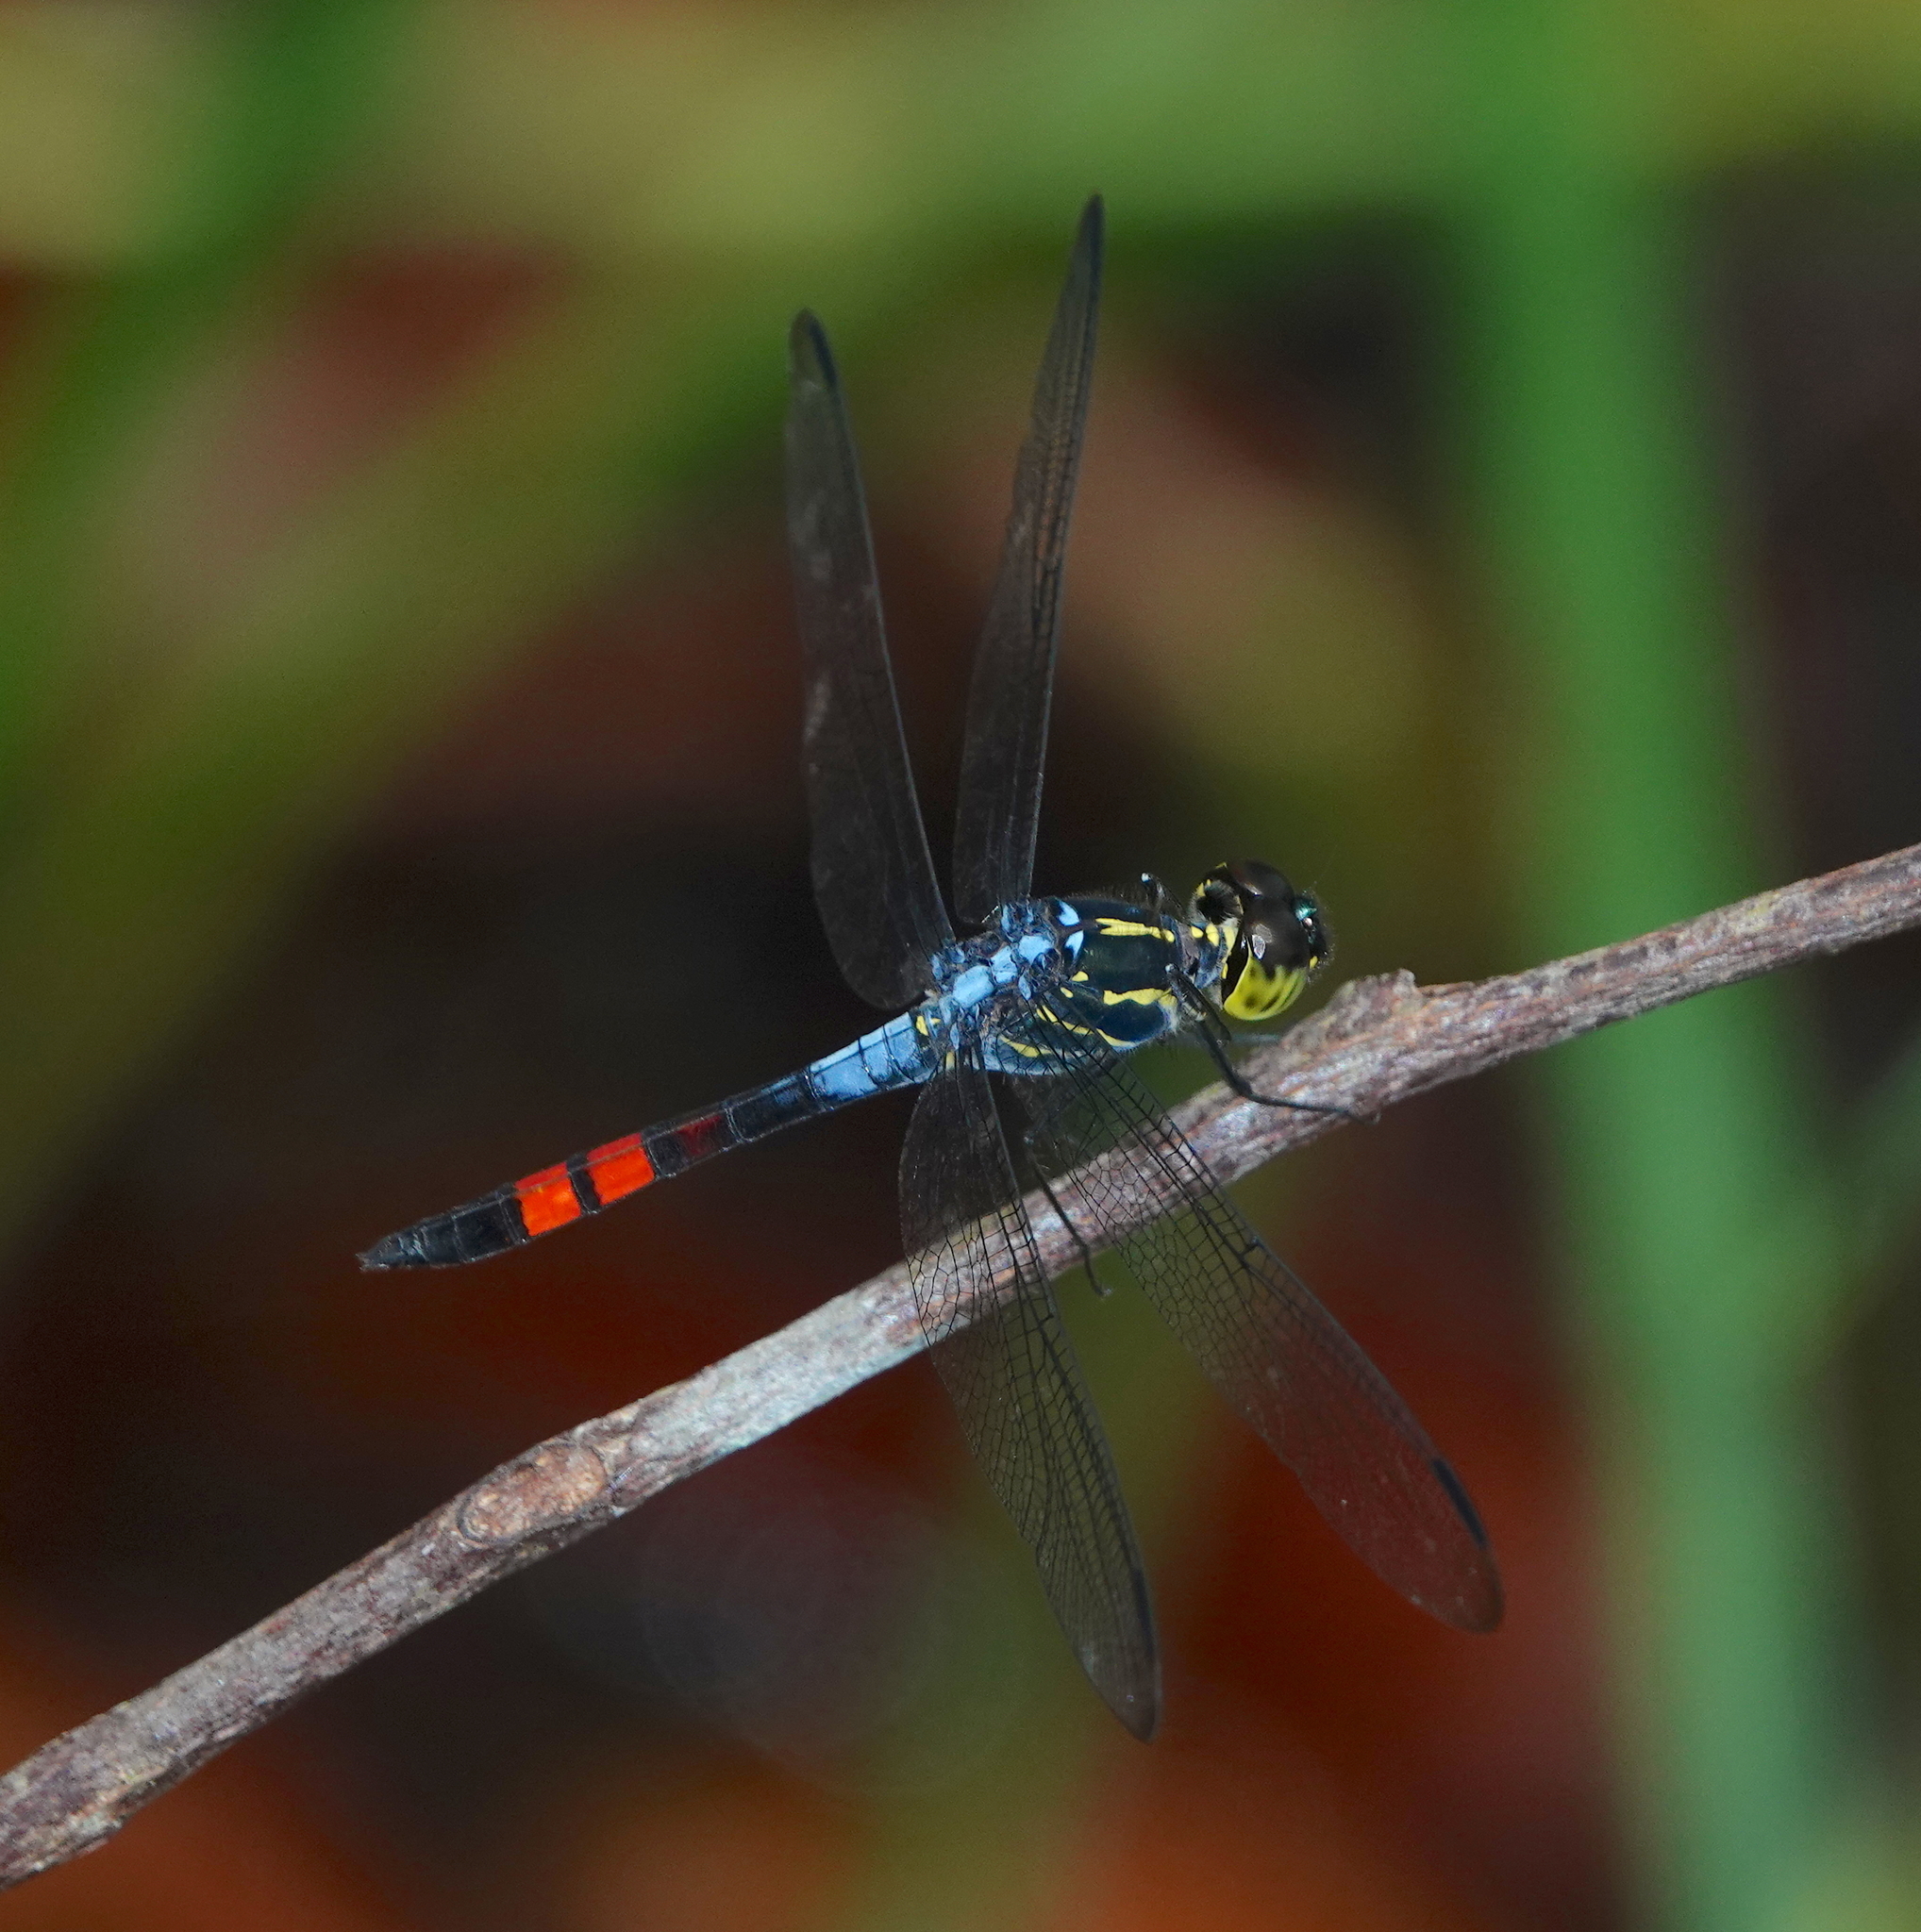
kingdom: Animalia
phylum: Arthropoda
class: Insecta
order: Odonata
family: Libellulidae
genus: Agrionoptera
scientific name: Agrionoptera sexlineata
